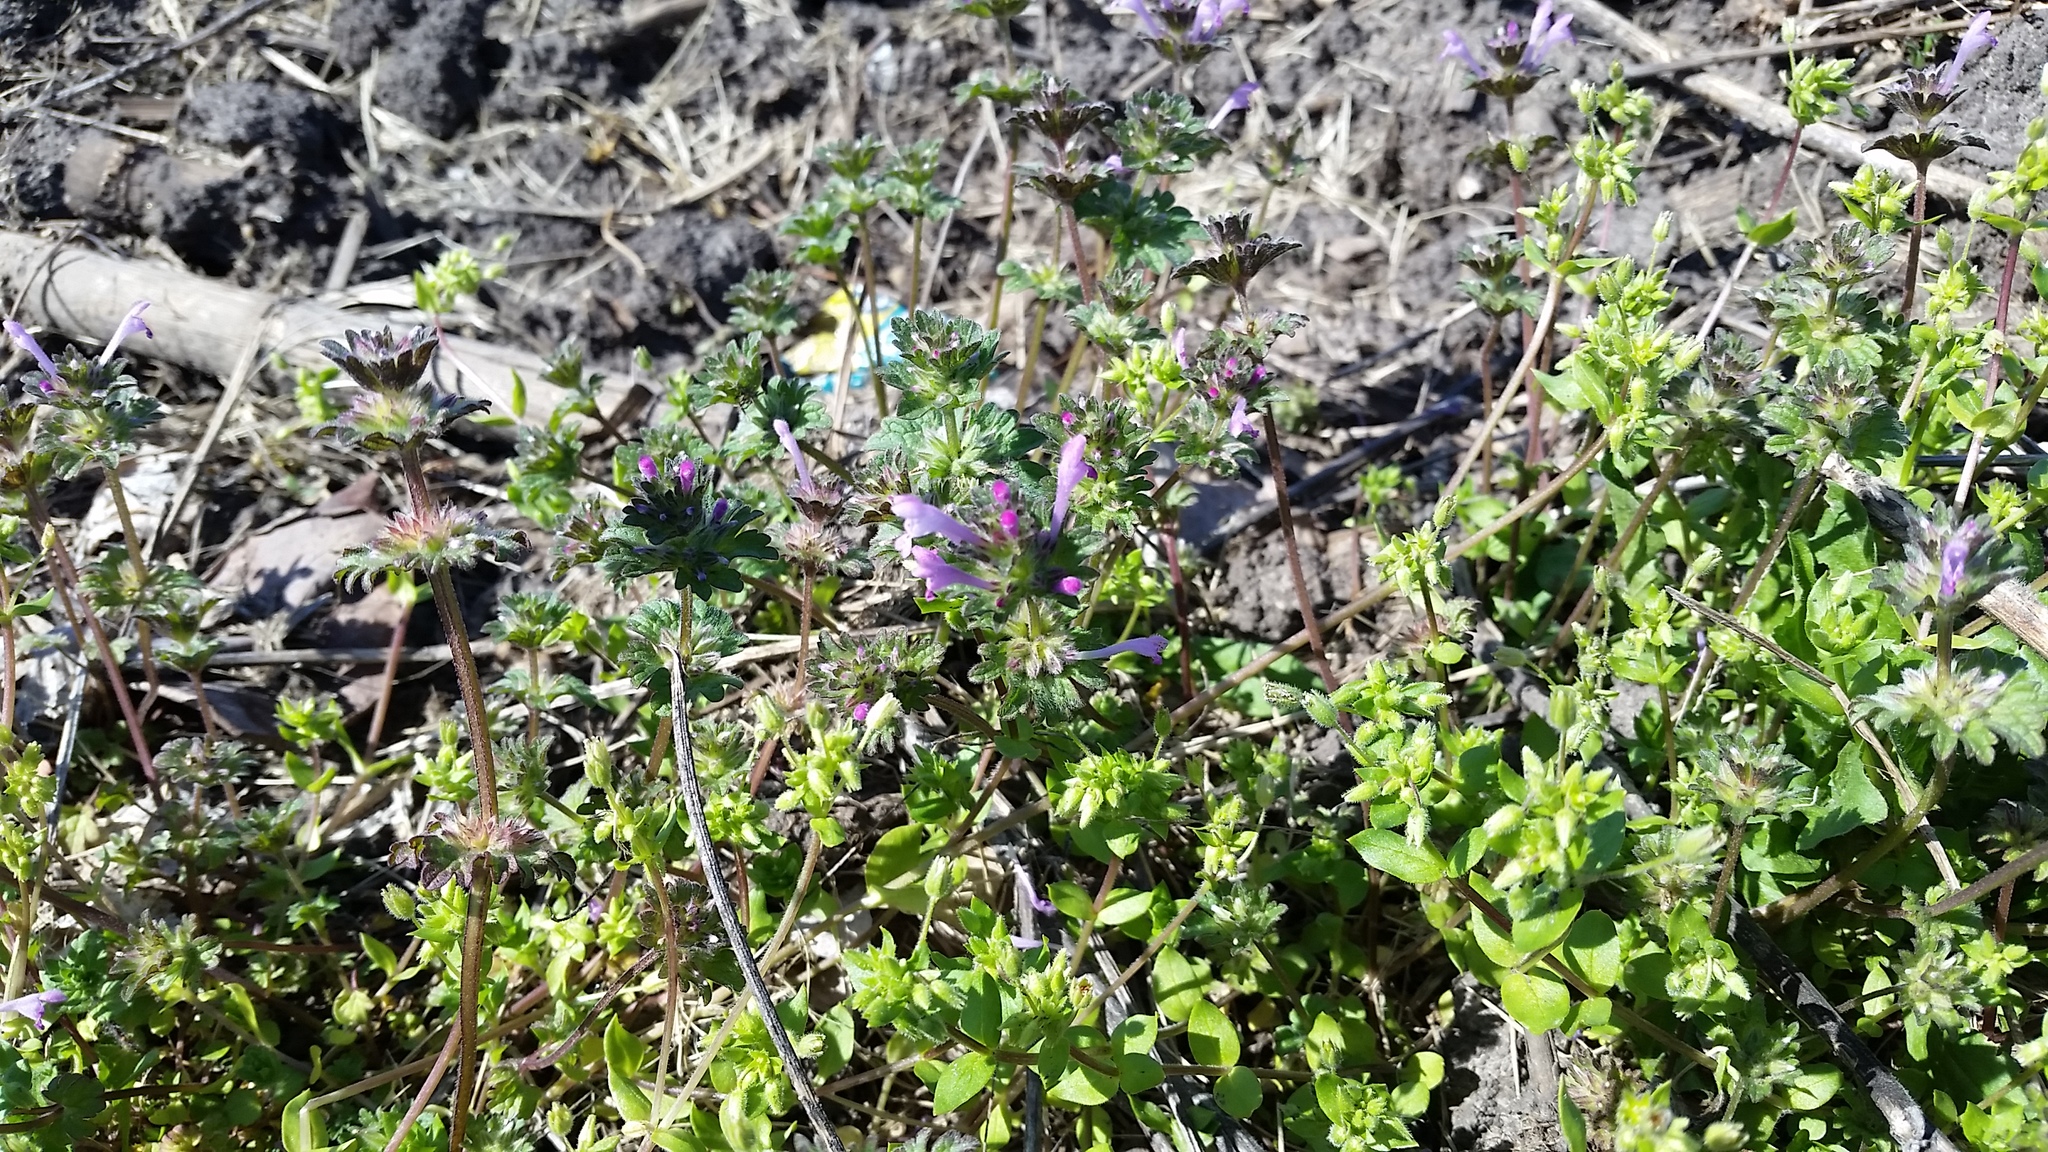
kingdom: Plantae
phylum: Tracheophyta
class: Magnoliopsida
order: Lamiales
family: Lamiaceae
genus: Lamium
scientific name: Lamium amplexicaule
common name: Henbit dead-nettle
